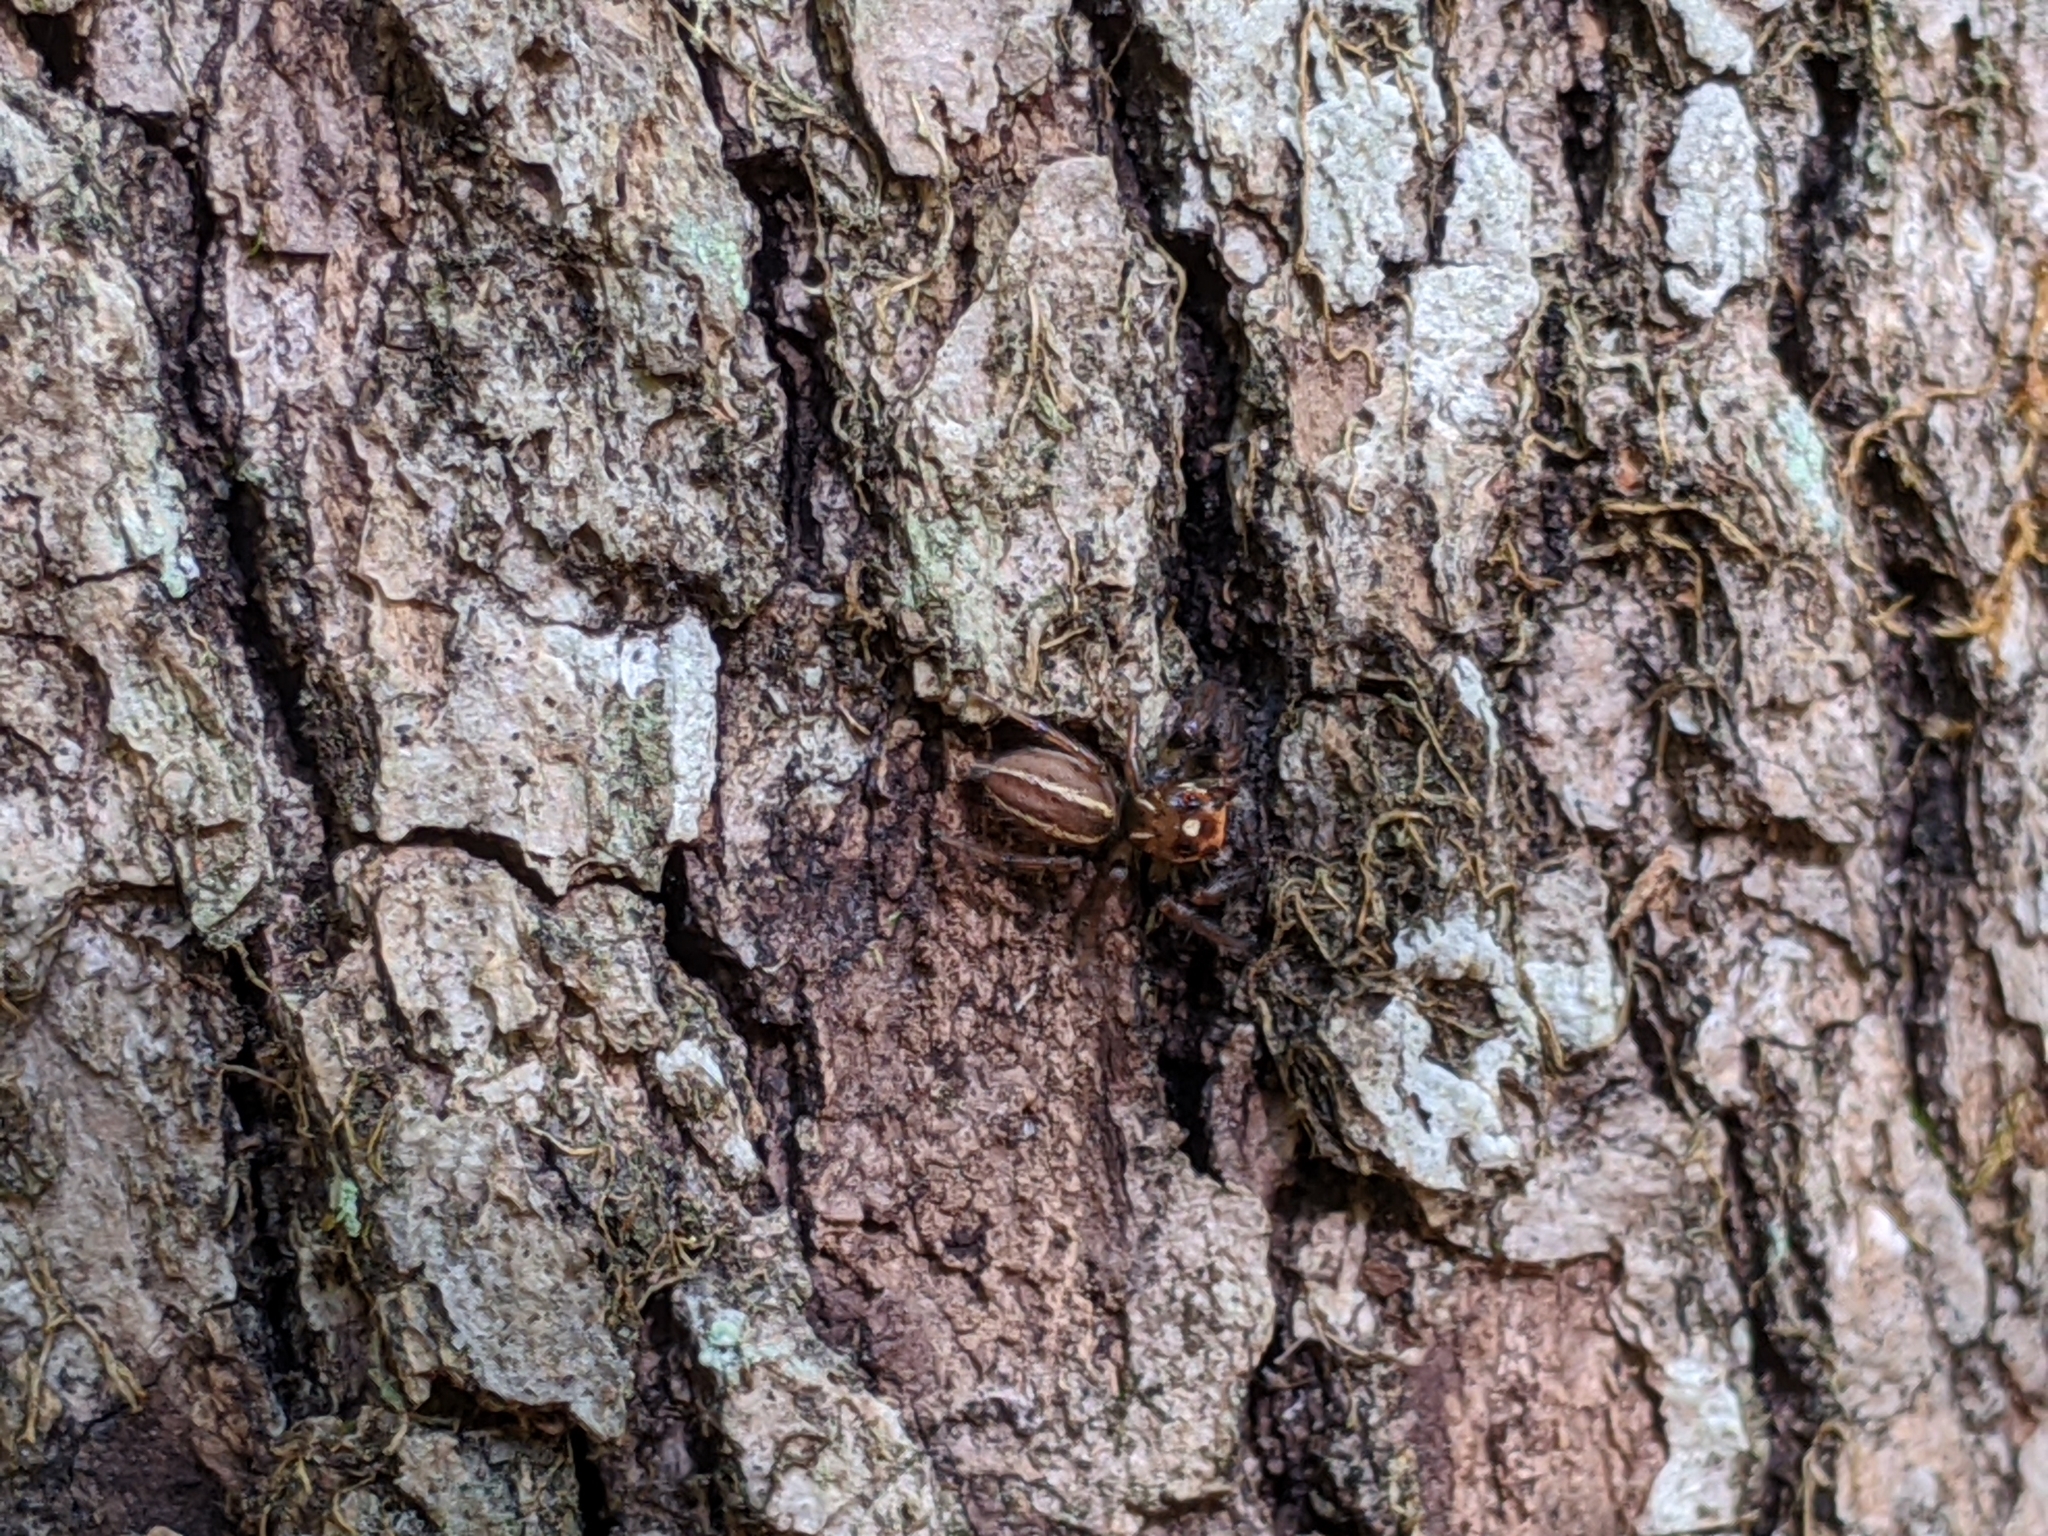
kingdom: Animalia
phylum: Arthropoda
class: Arachnida
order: Araneae
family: Salticidae
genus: Colonus
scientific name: Colonus sylvanus
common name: Jumping spiders
